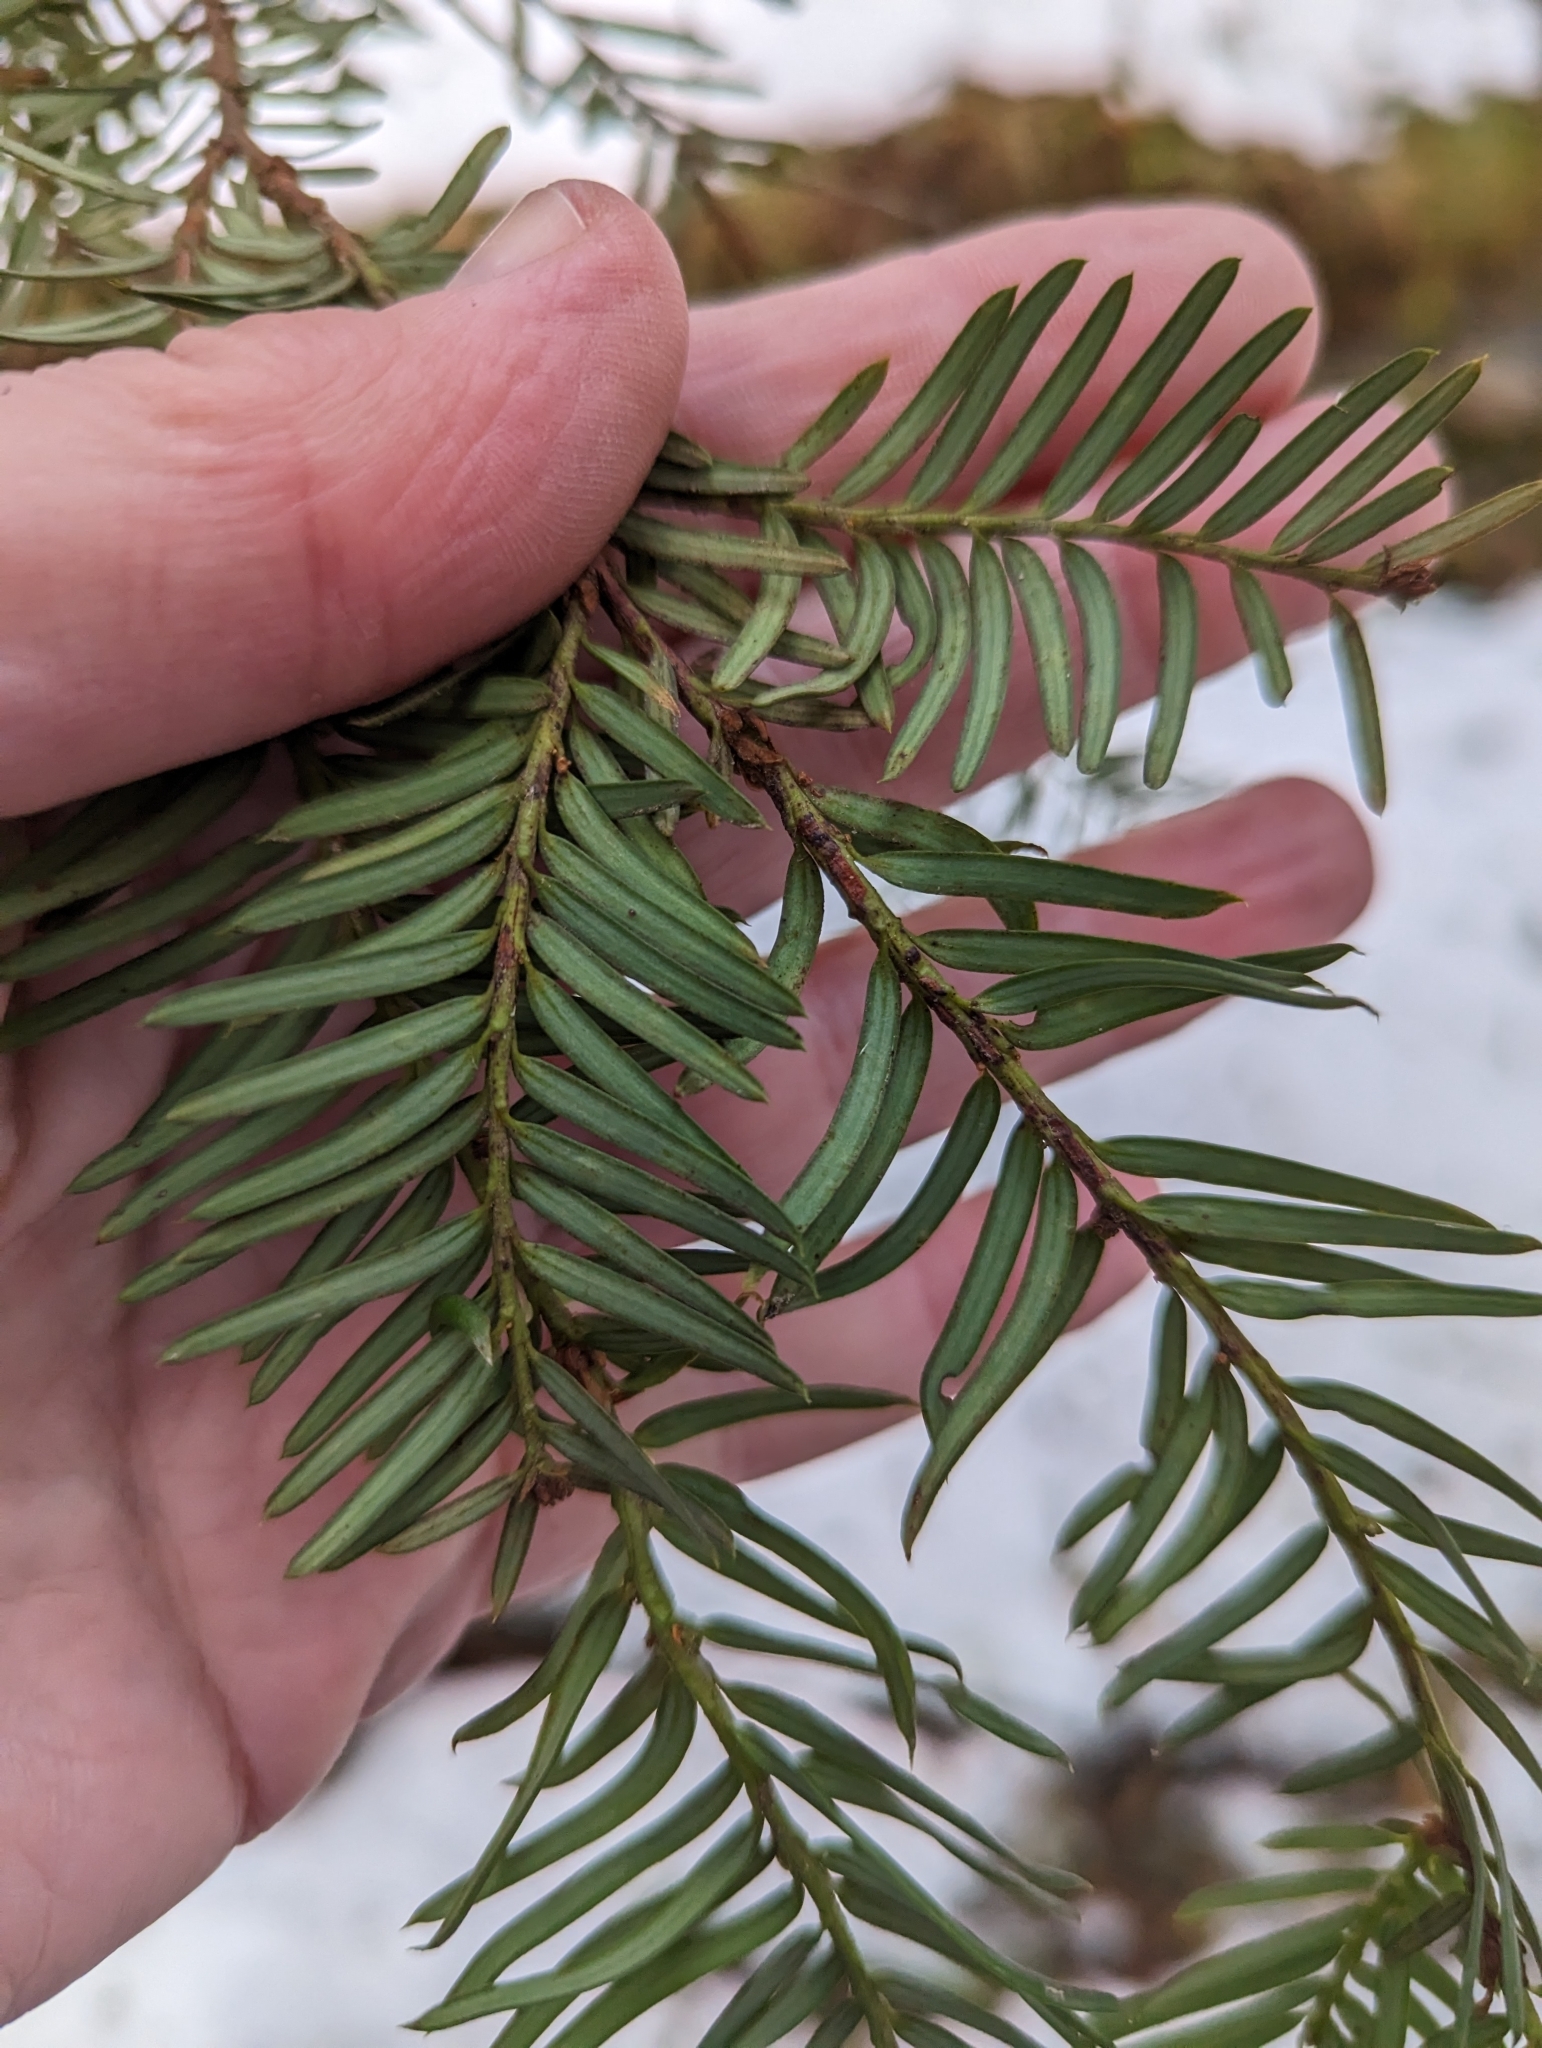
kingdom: Plantae
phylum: Tracheophyta
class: Pinopsida
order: Pinales
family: Taxaceae
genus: Taxus
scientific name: Taxus brevifolia
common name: Pacific yew
